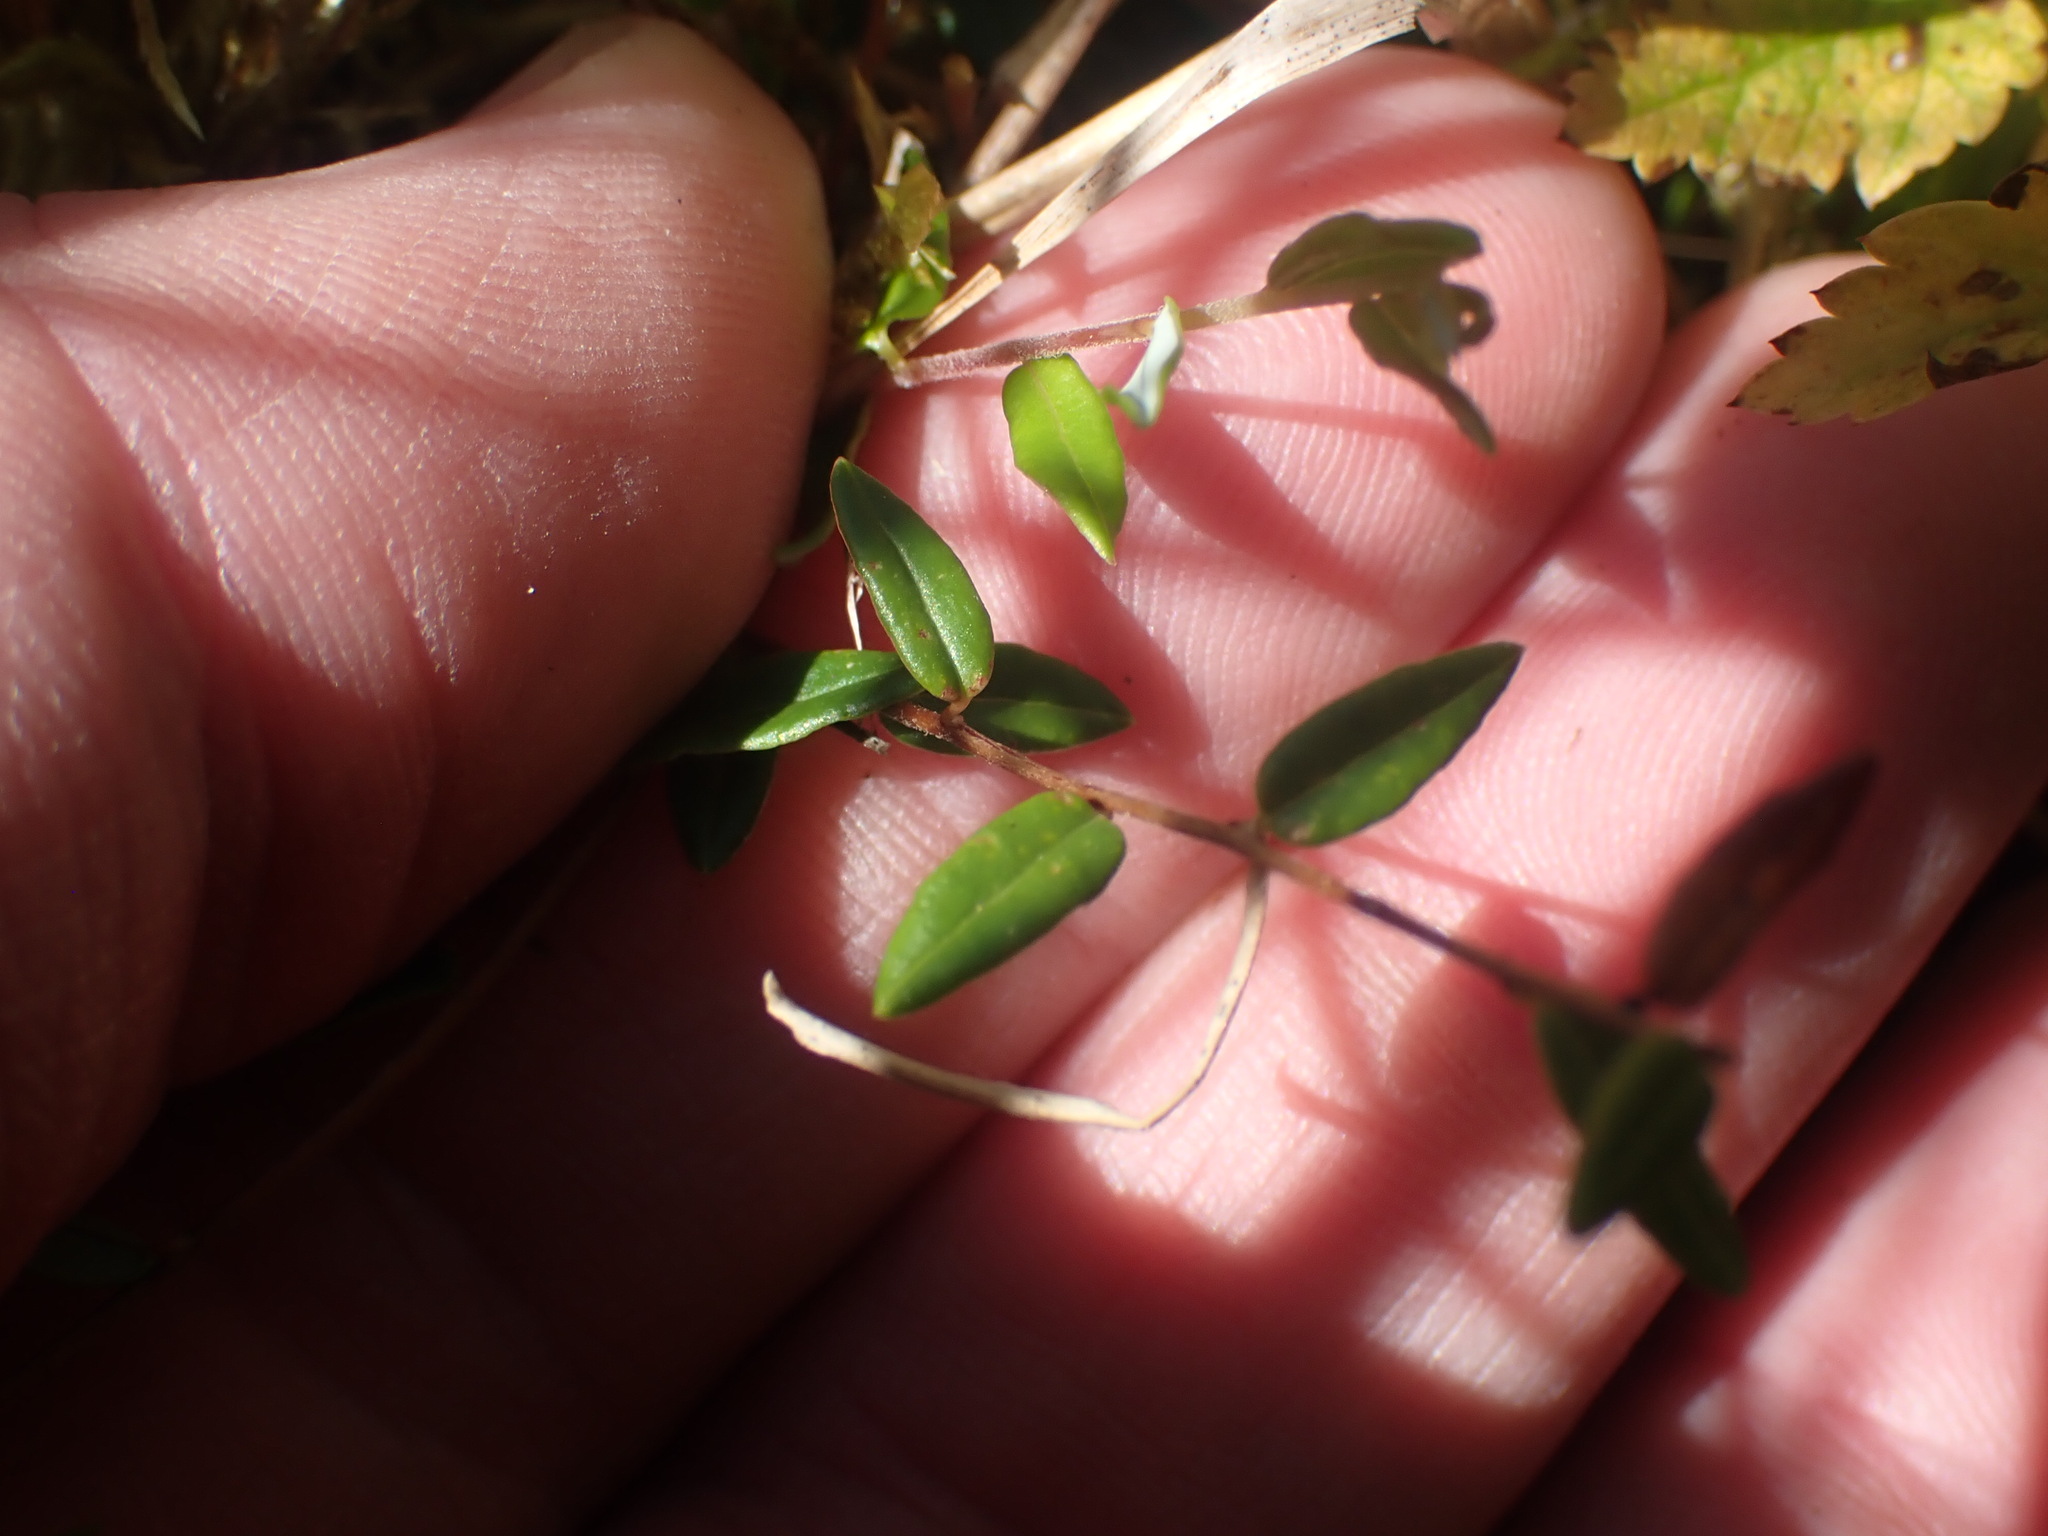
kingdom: Plantae
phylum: Tracheophyta
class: Magnoliopsida
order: Ericales
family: Ericaceae
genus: Vaccinium
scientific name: Vaccinium oxycoccos
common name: Cranberry
